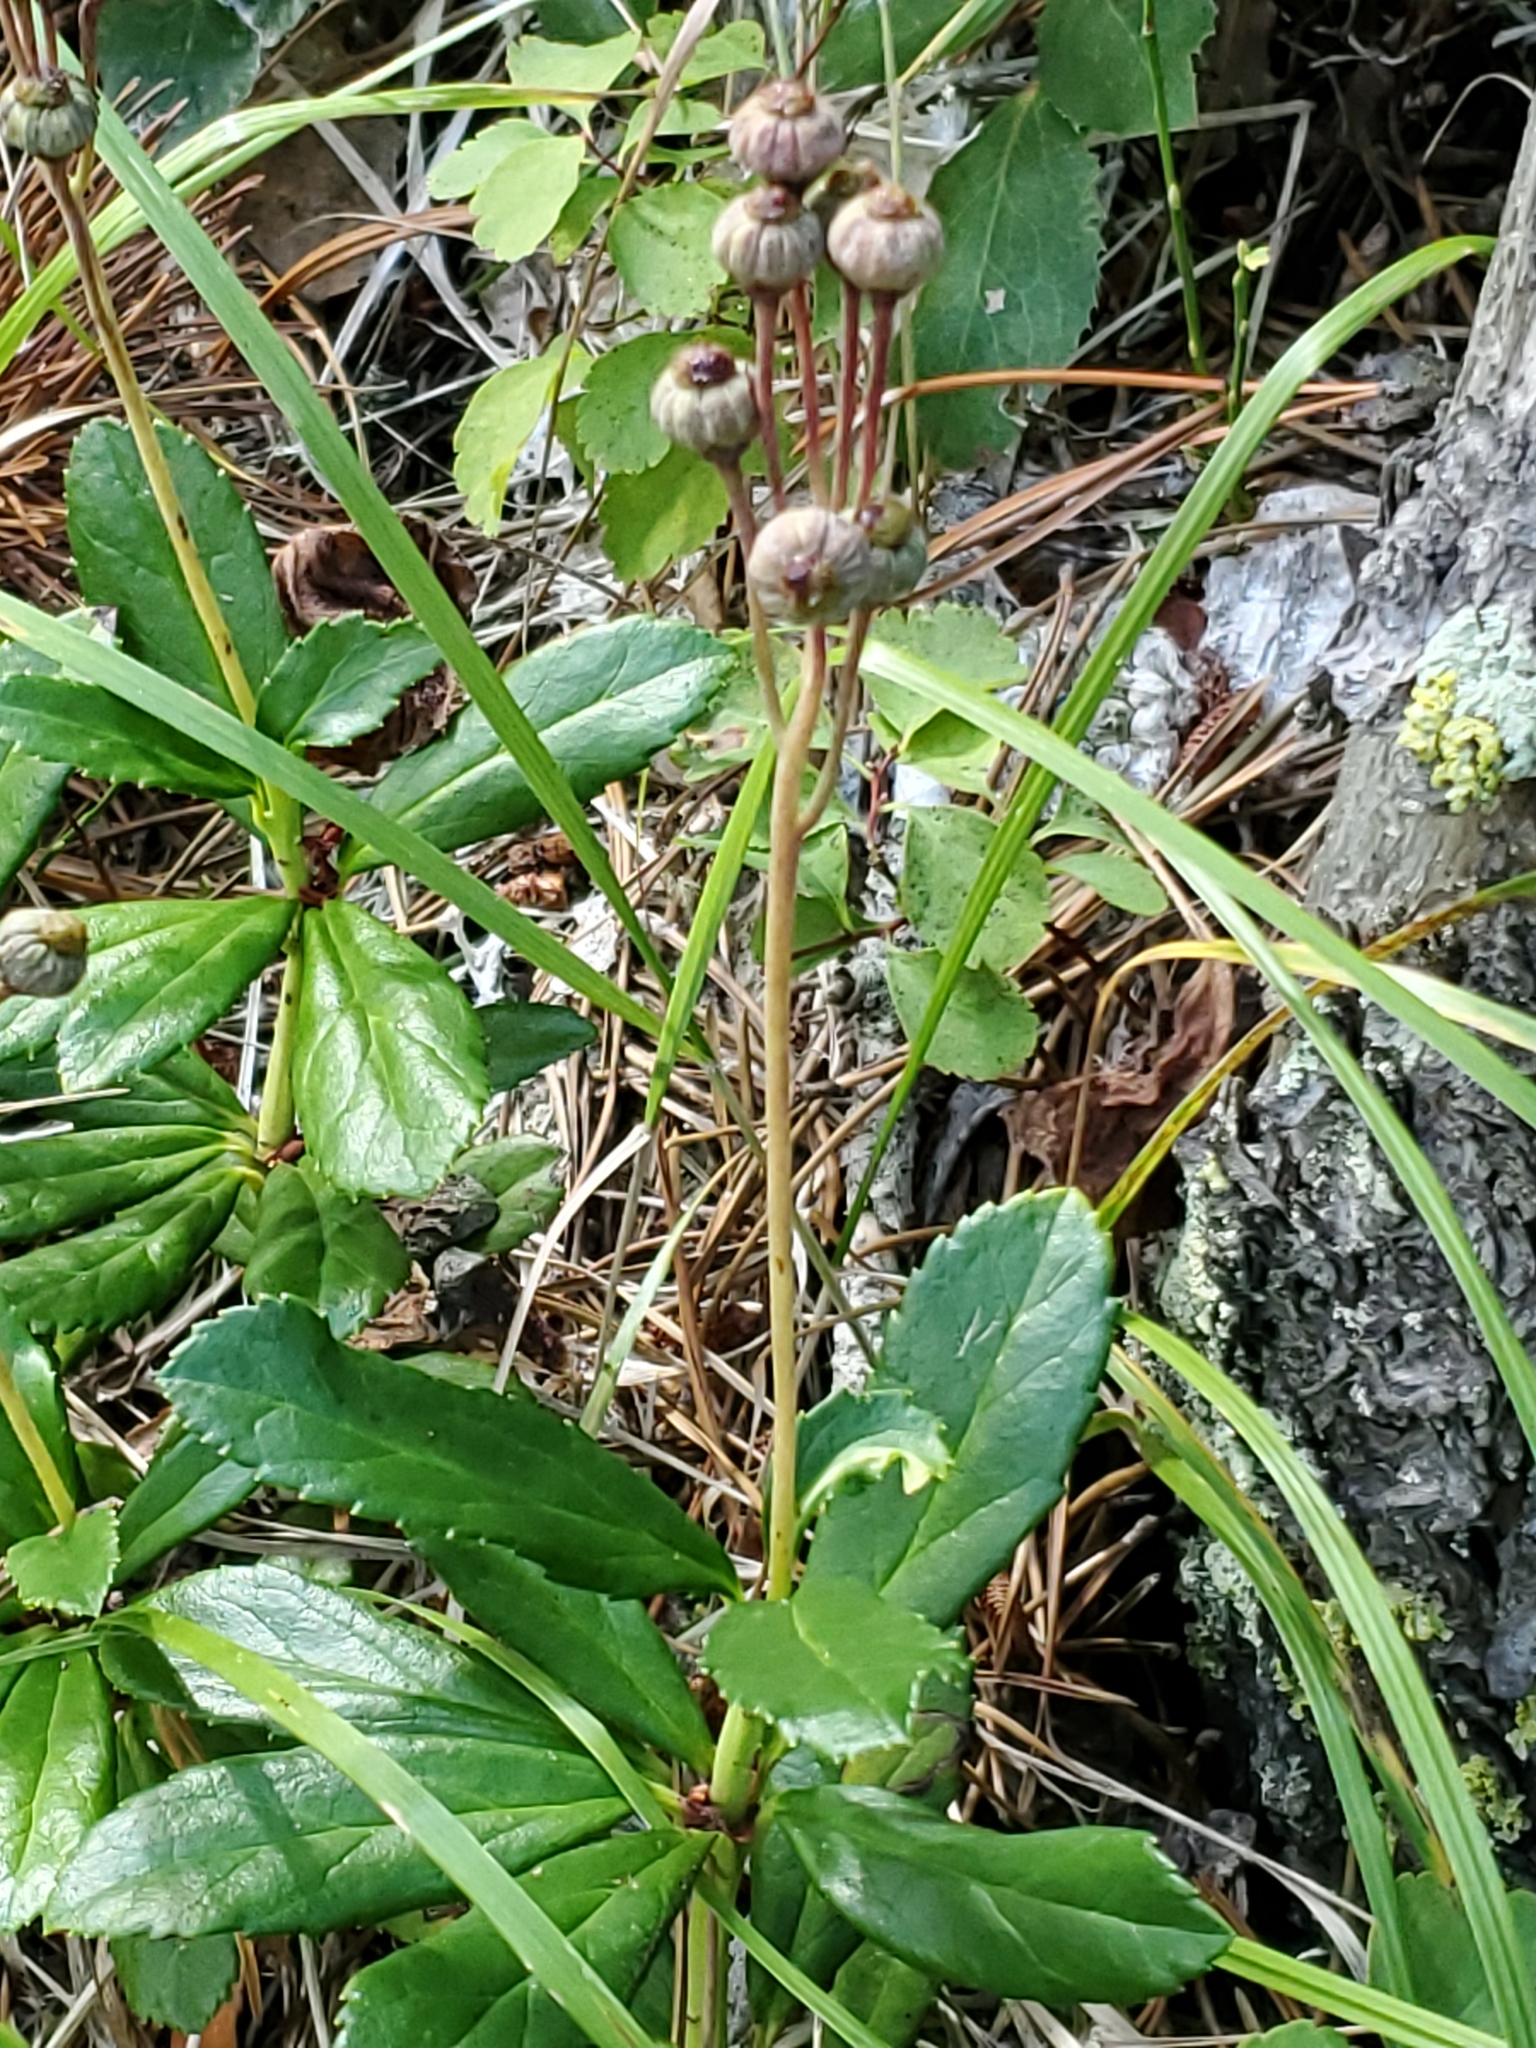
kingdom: Plantae
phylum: Tracheophyta
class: Magnoliopsida
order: Ericales
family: Ericaceae
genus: Chimaphila
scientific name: Chimaphila umbellata
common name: Pipsissewa
